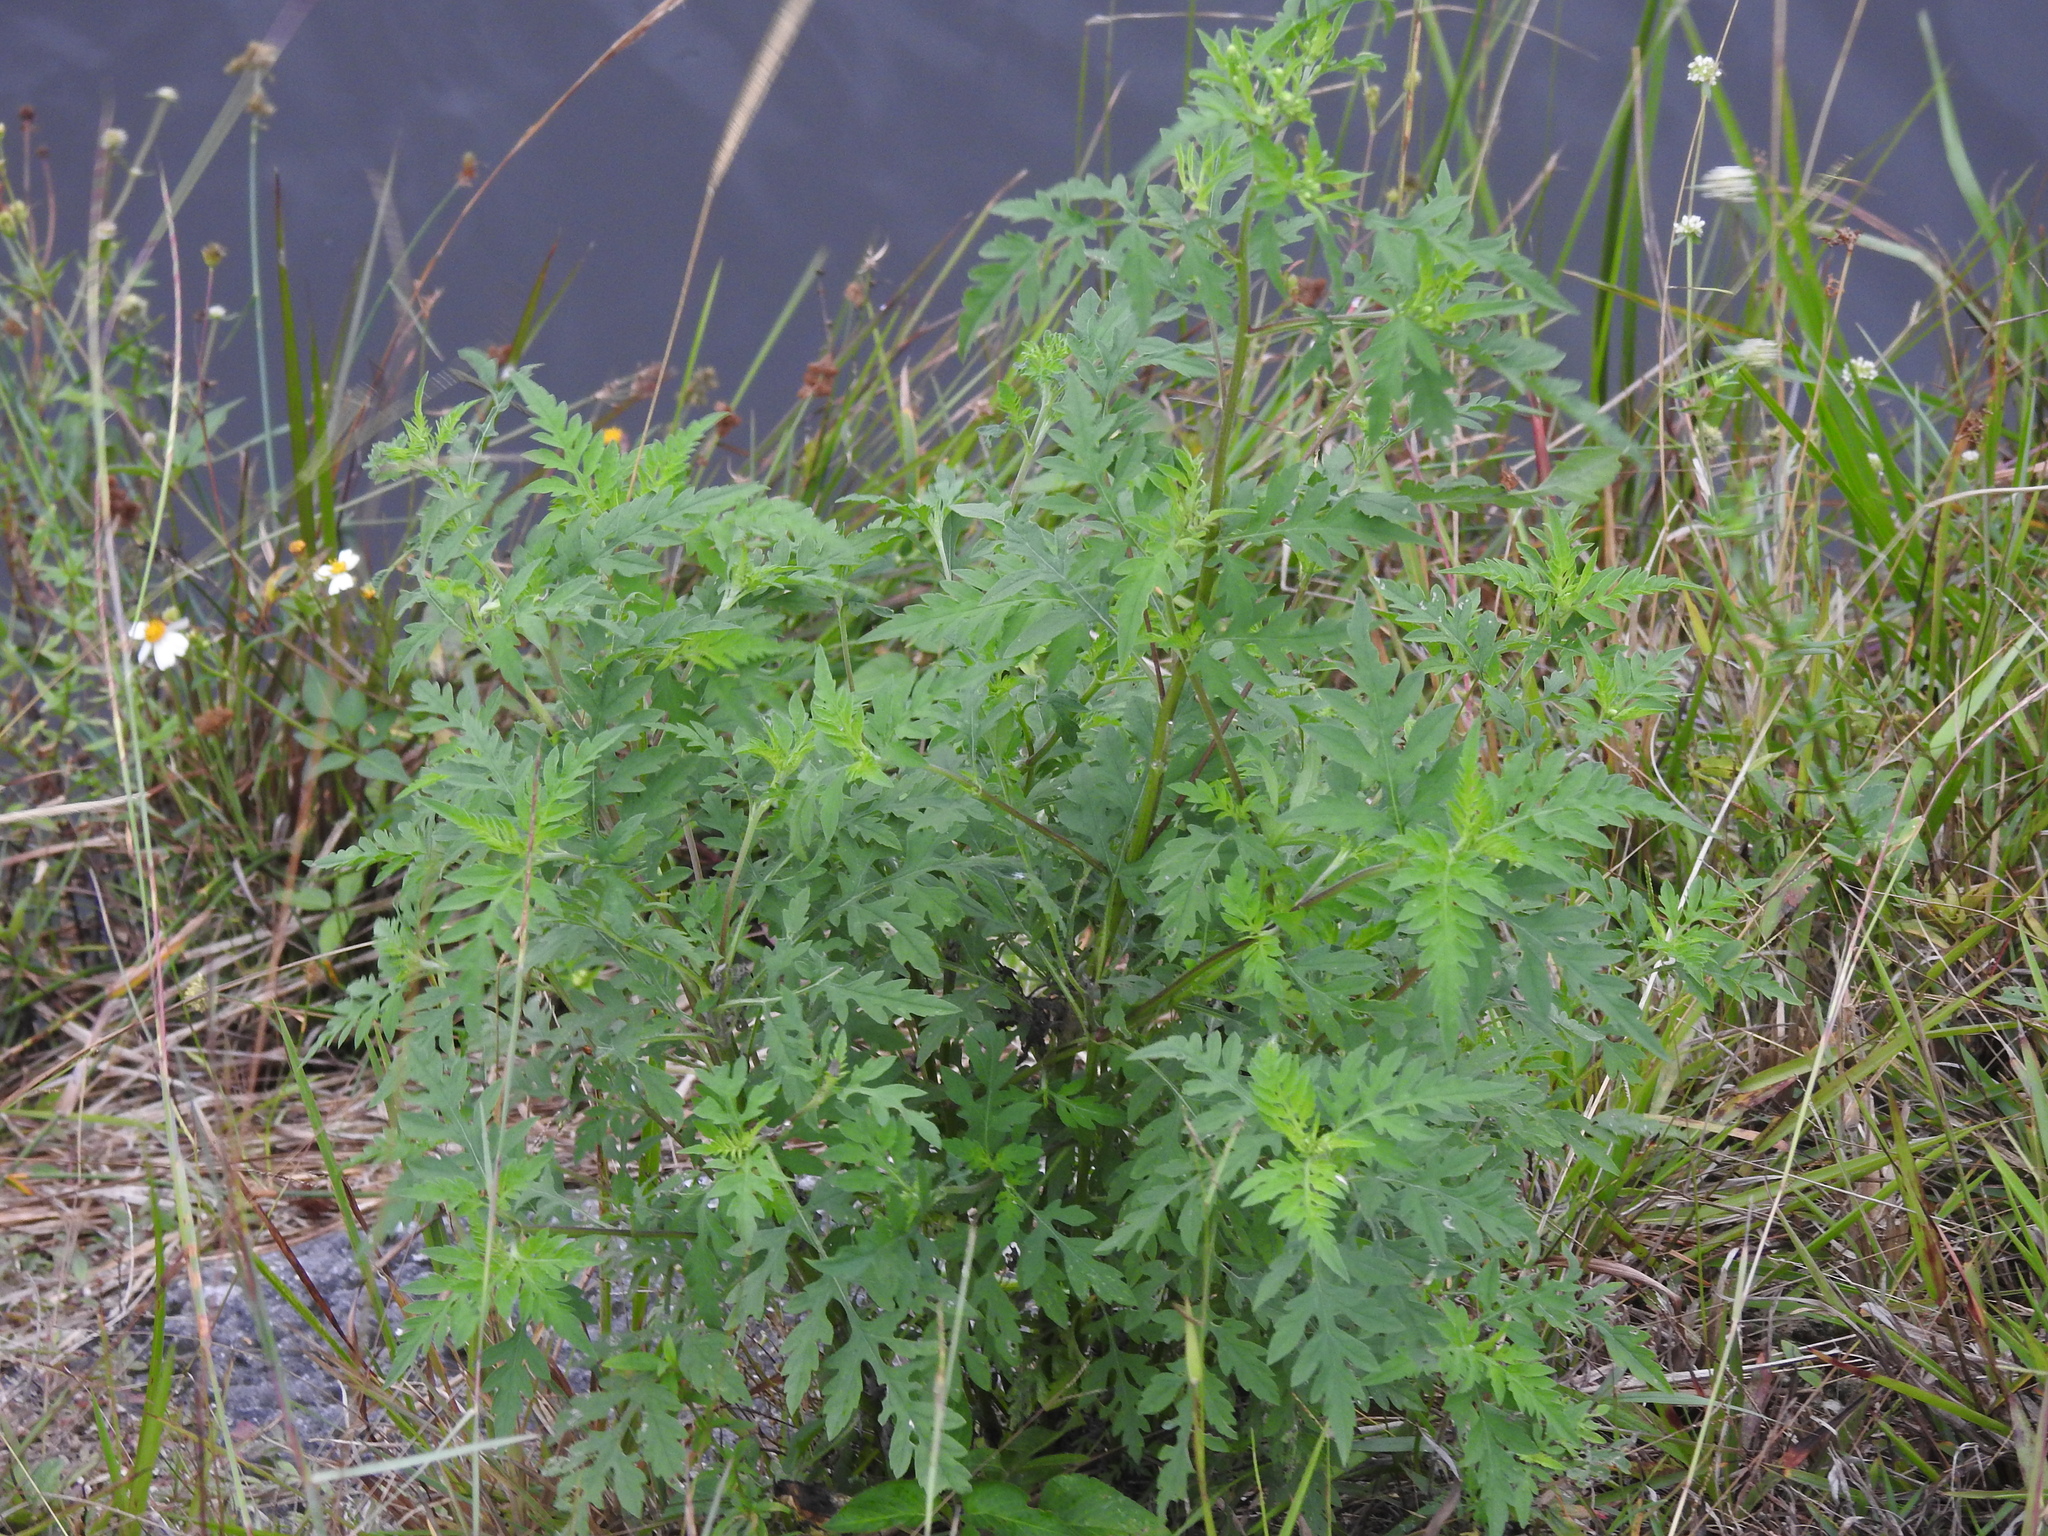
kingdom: Plantae
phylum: Tracheophyta
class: Magnoliopsida
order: Asterales
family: Asteraceae
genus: Ambrosia
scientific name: Ambrosia artemisiifolia
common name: Annual ragweed
